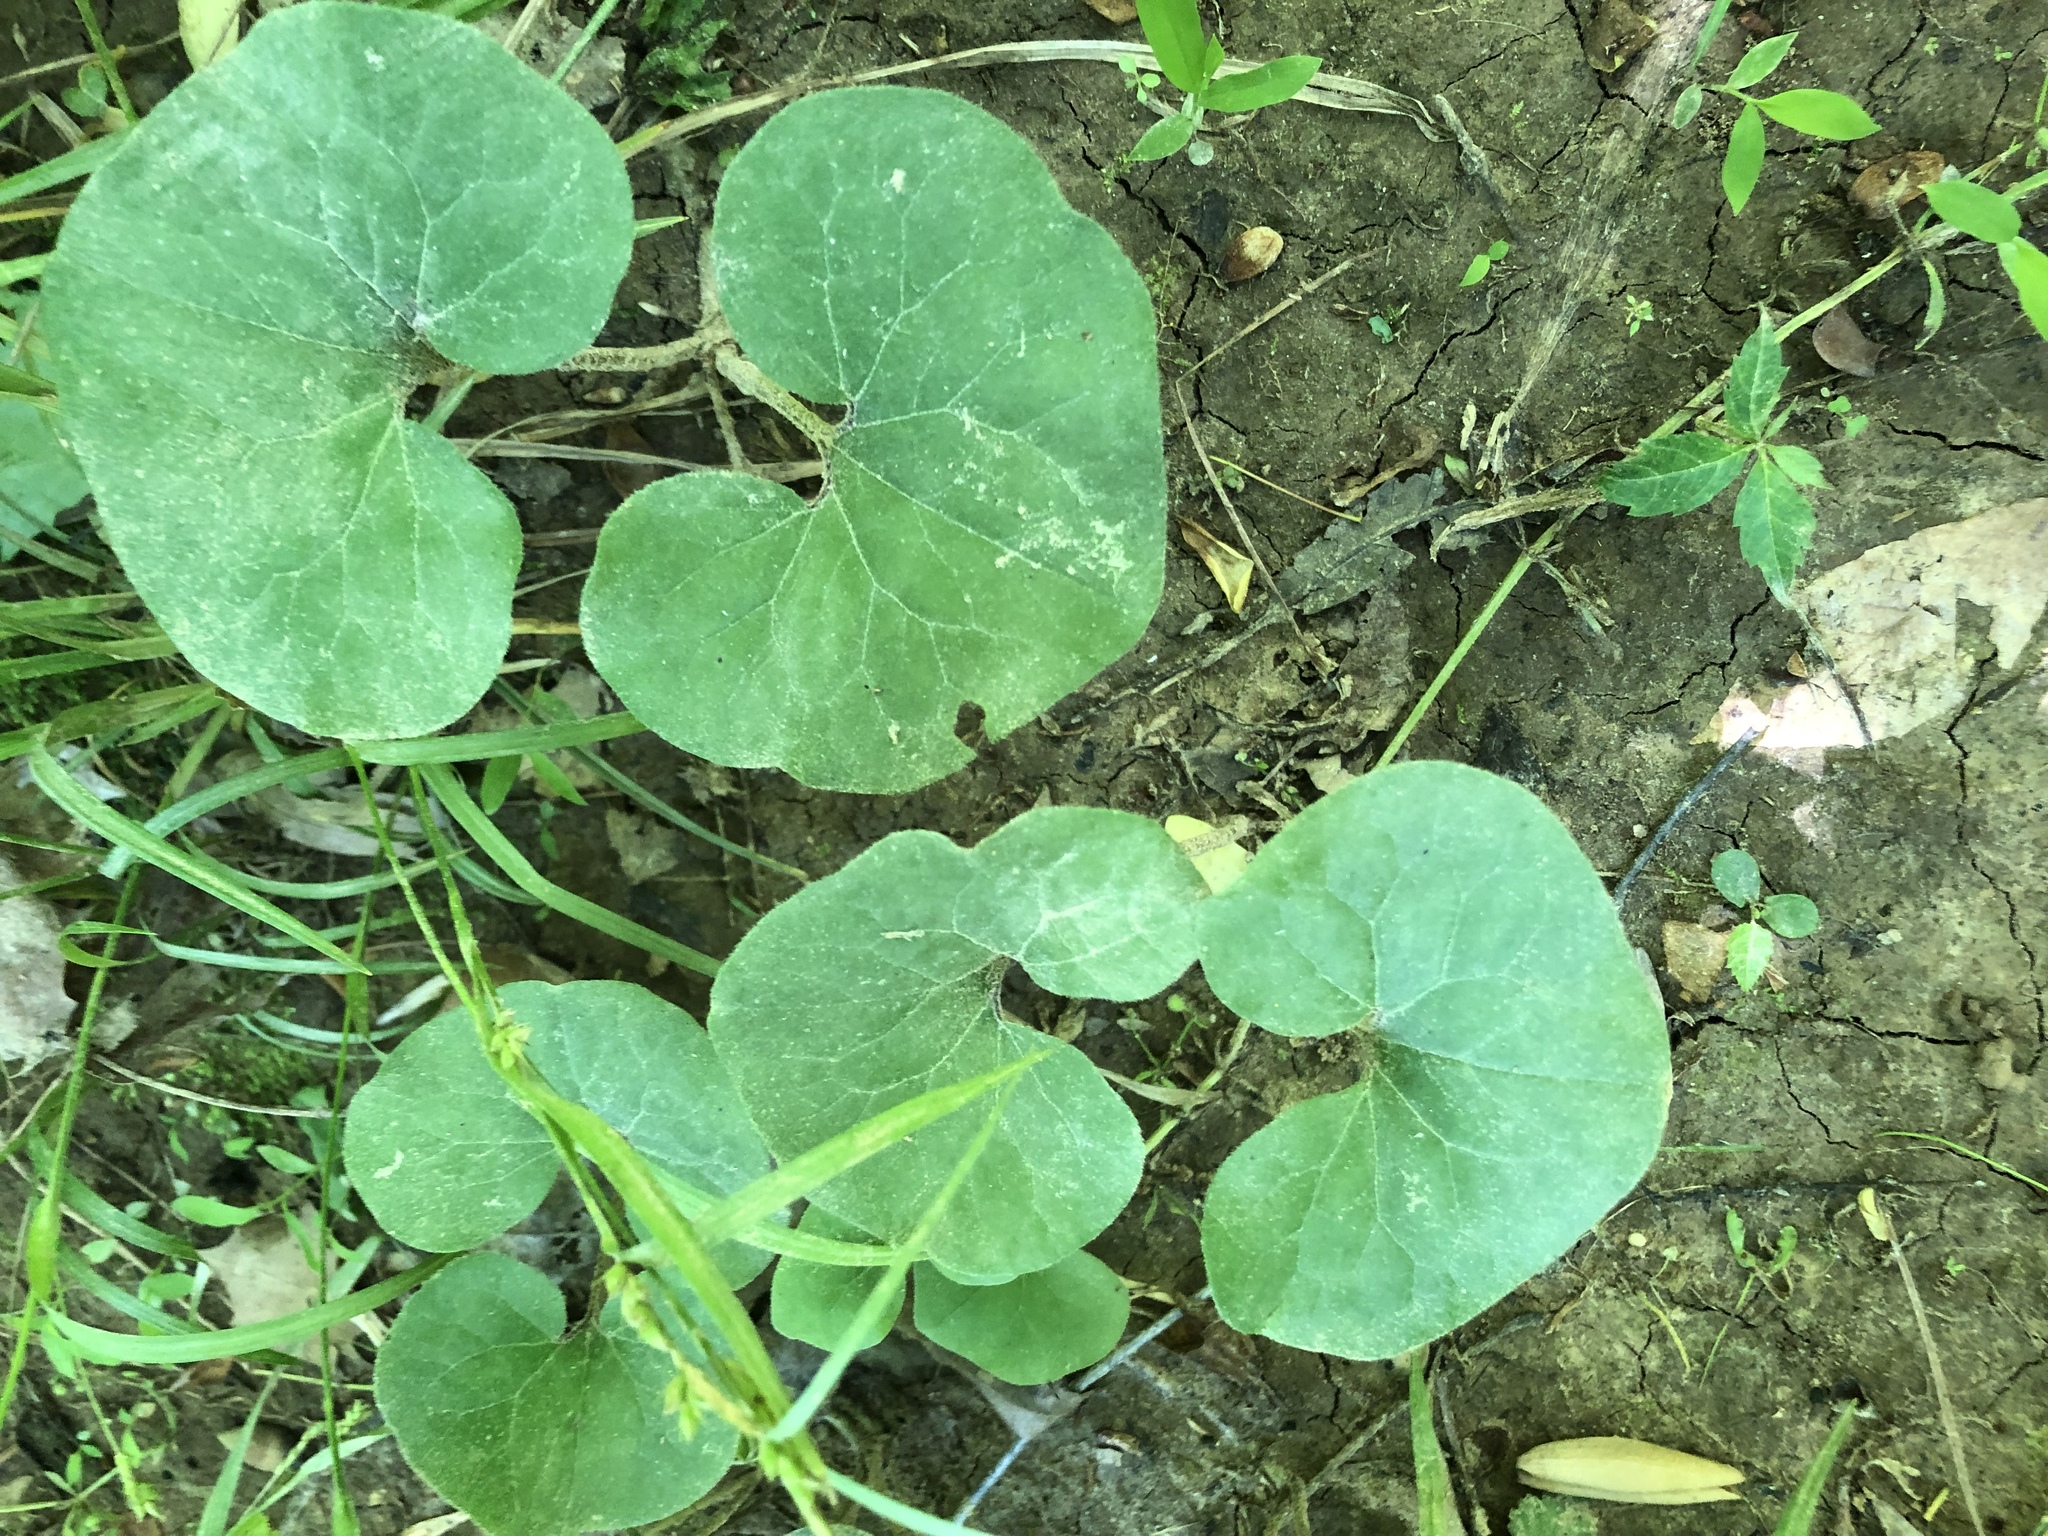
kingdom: Plantae
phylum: Tracheophyta
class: Magnoliopsida
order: Piperales
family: Aristolochiaceae
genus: Asarum
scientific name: Asarum canadense
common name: Wild ginger
